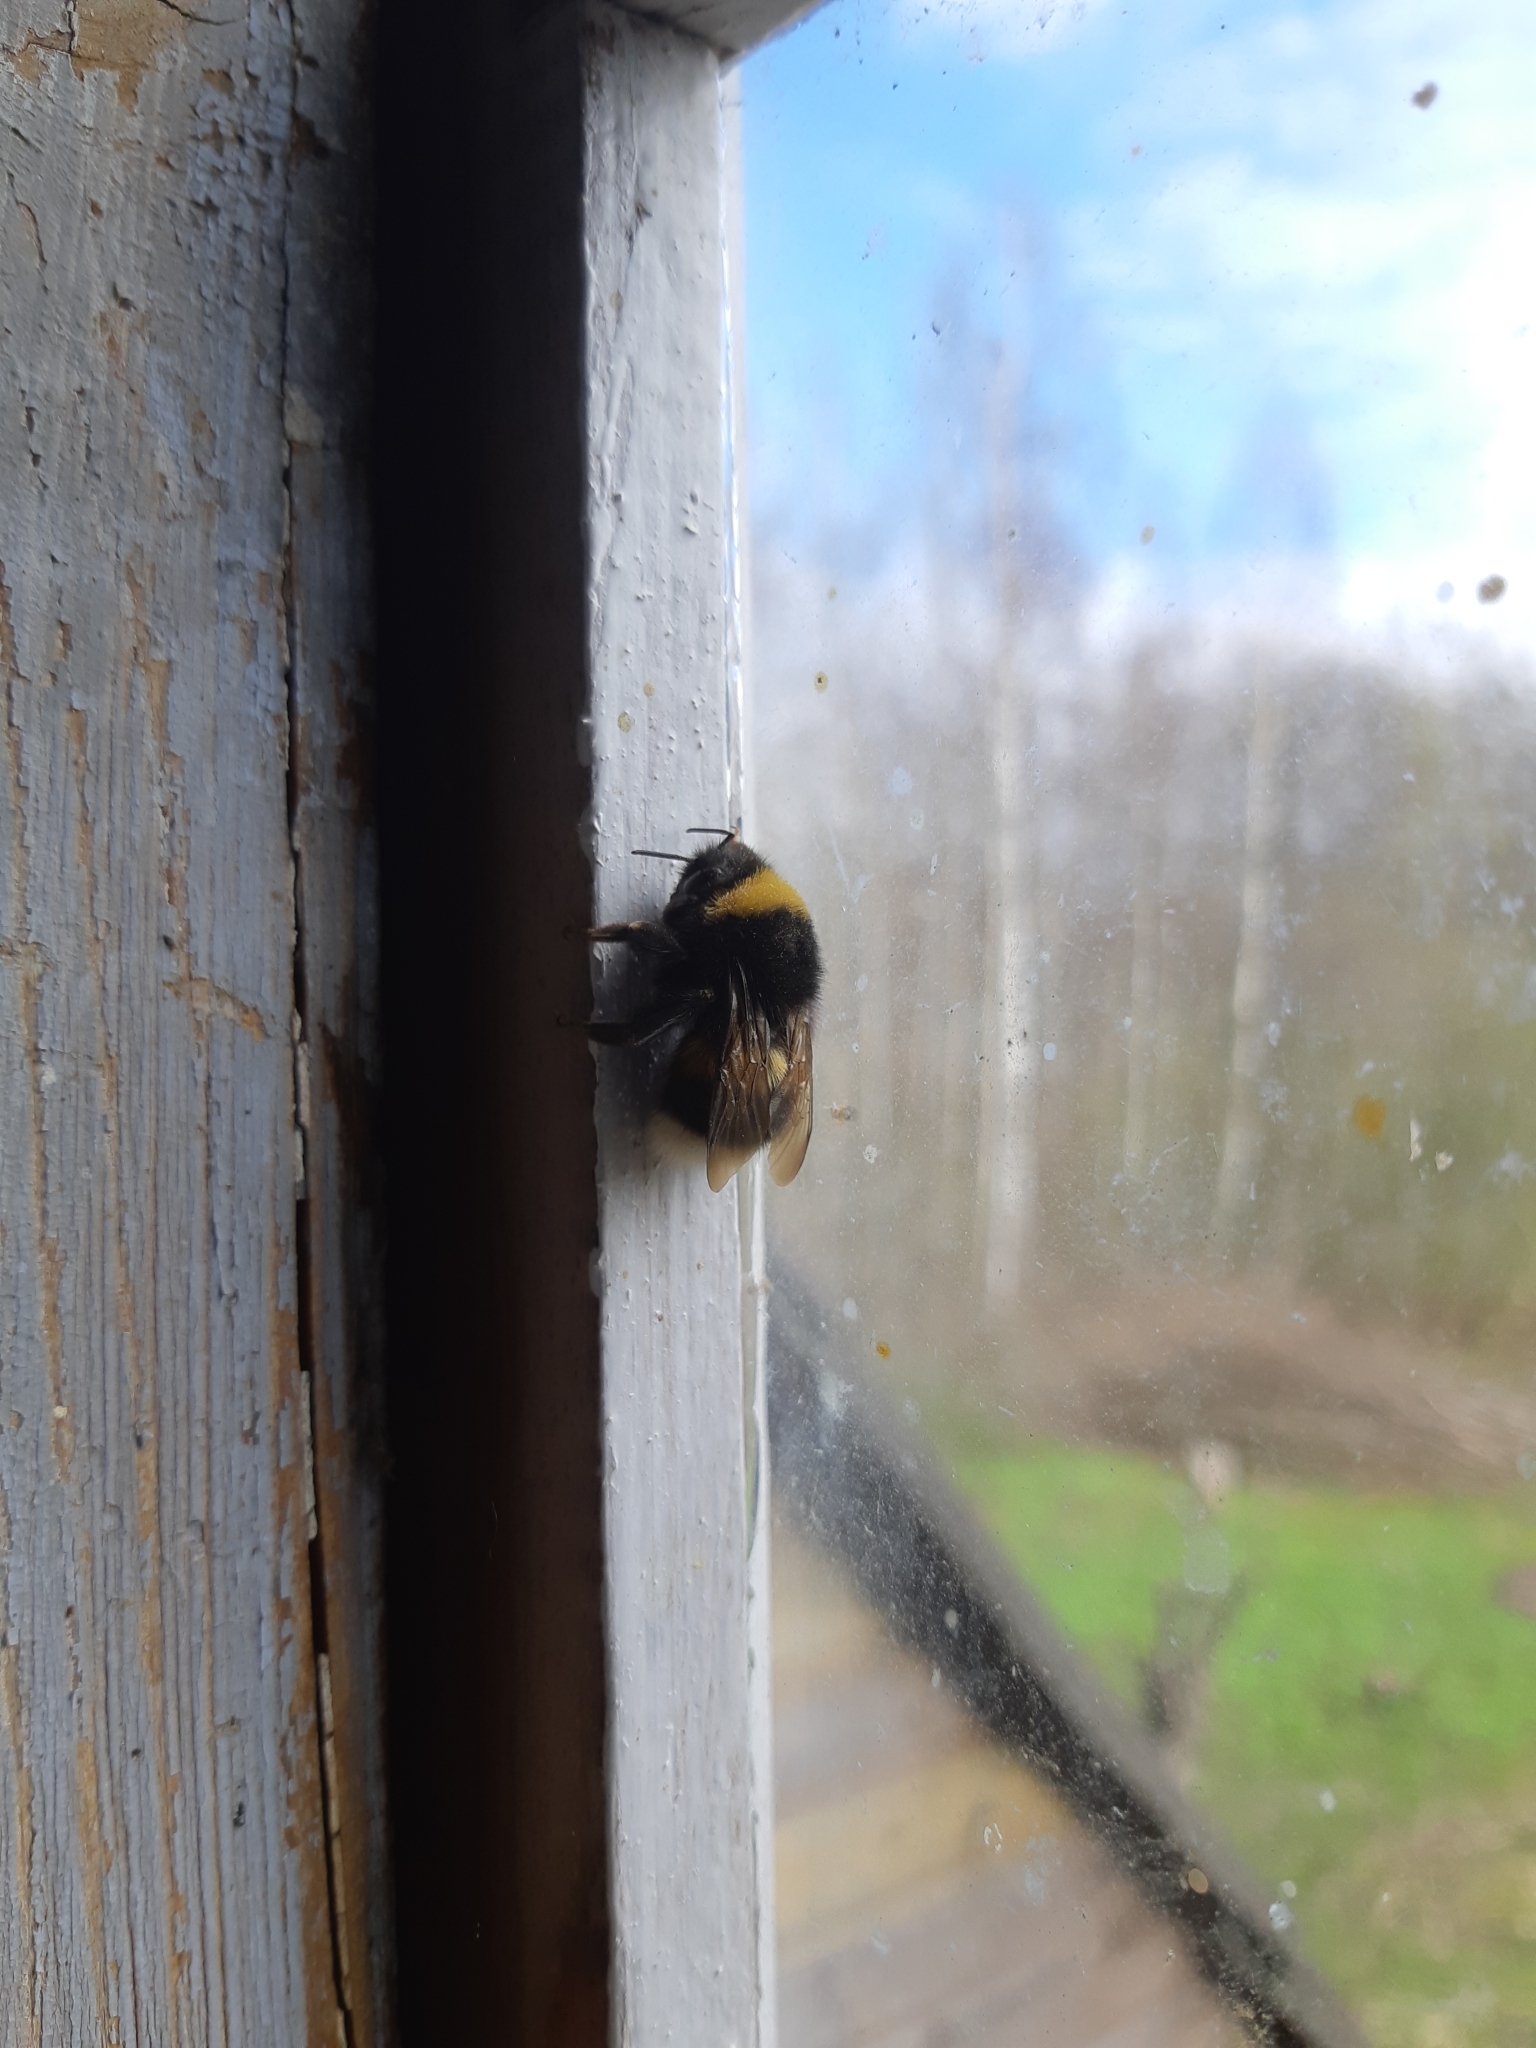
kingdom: Animalia
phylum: Arthropoda
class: Insecta
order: Hymenoptera
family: Apidae
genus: Bombus
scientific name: Bombus
